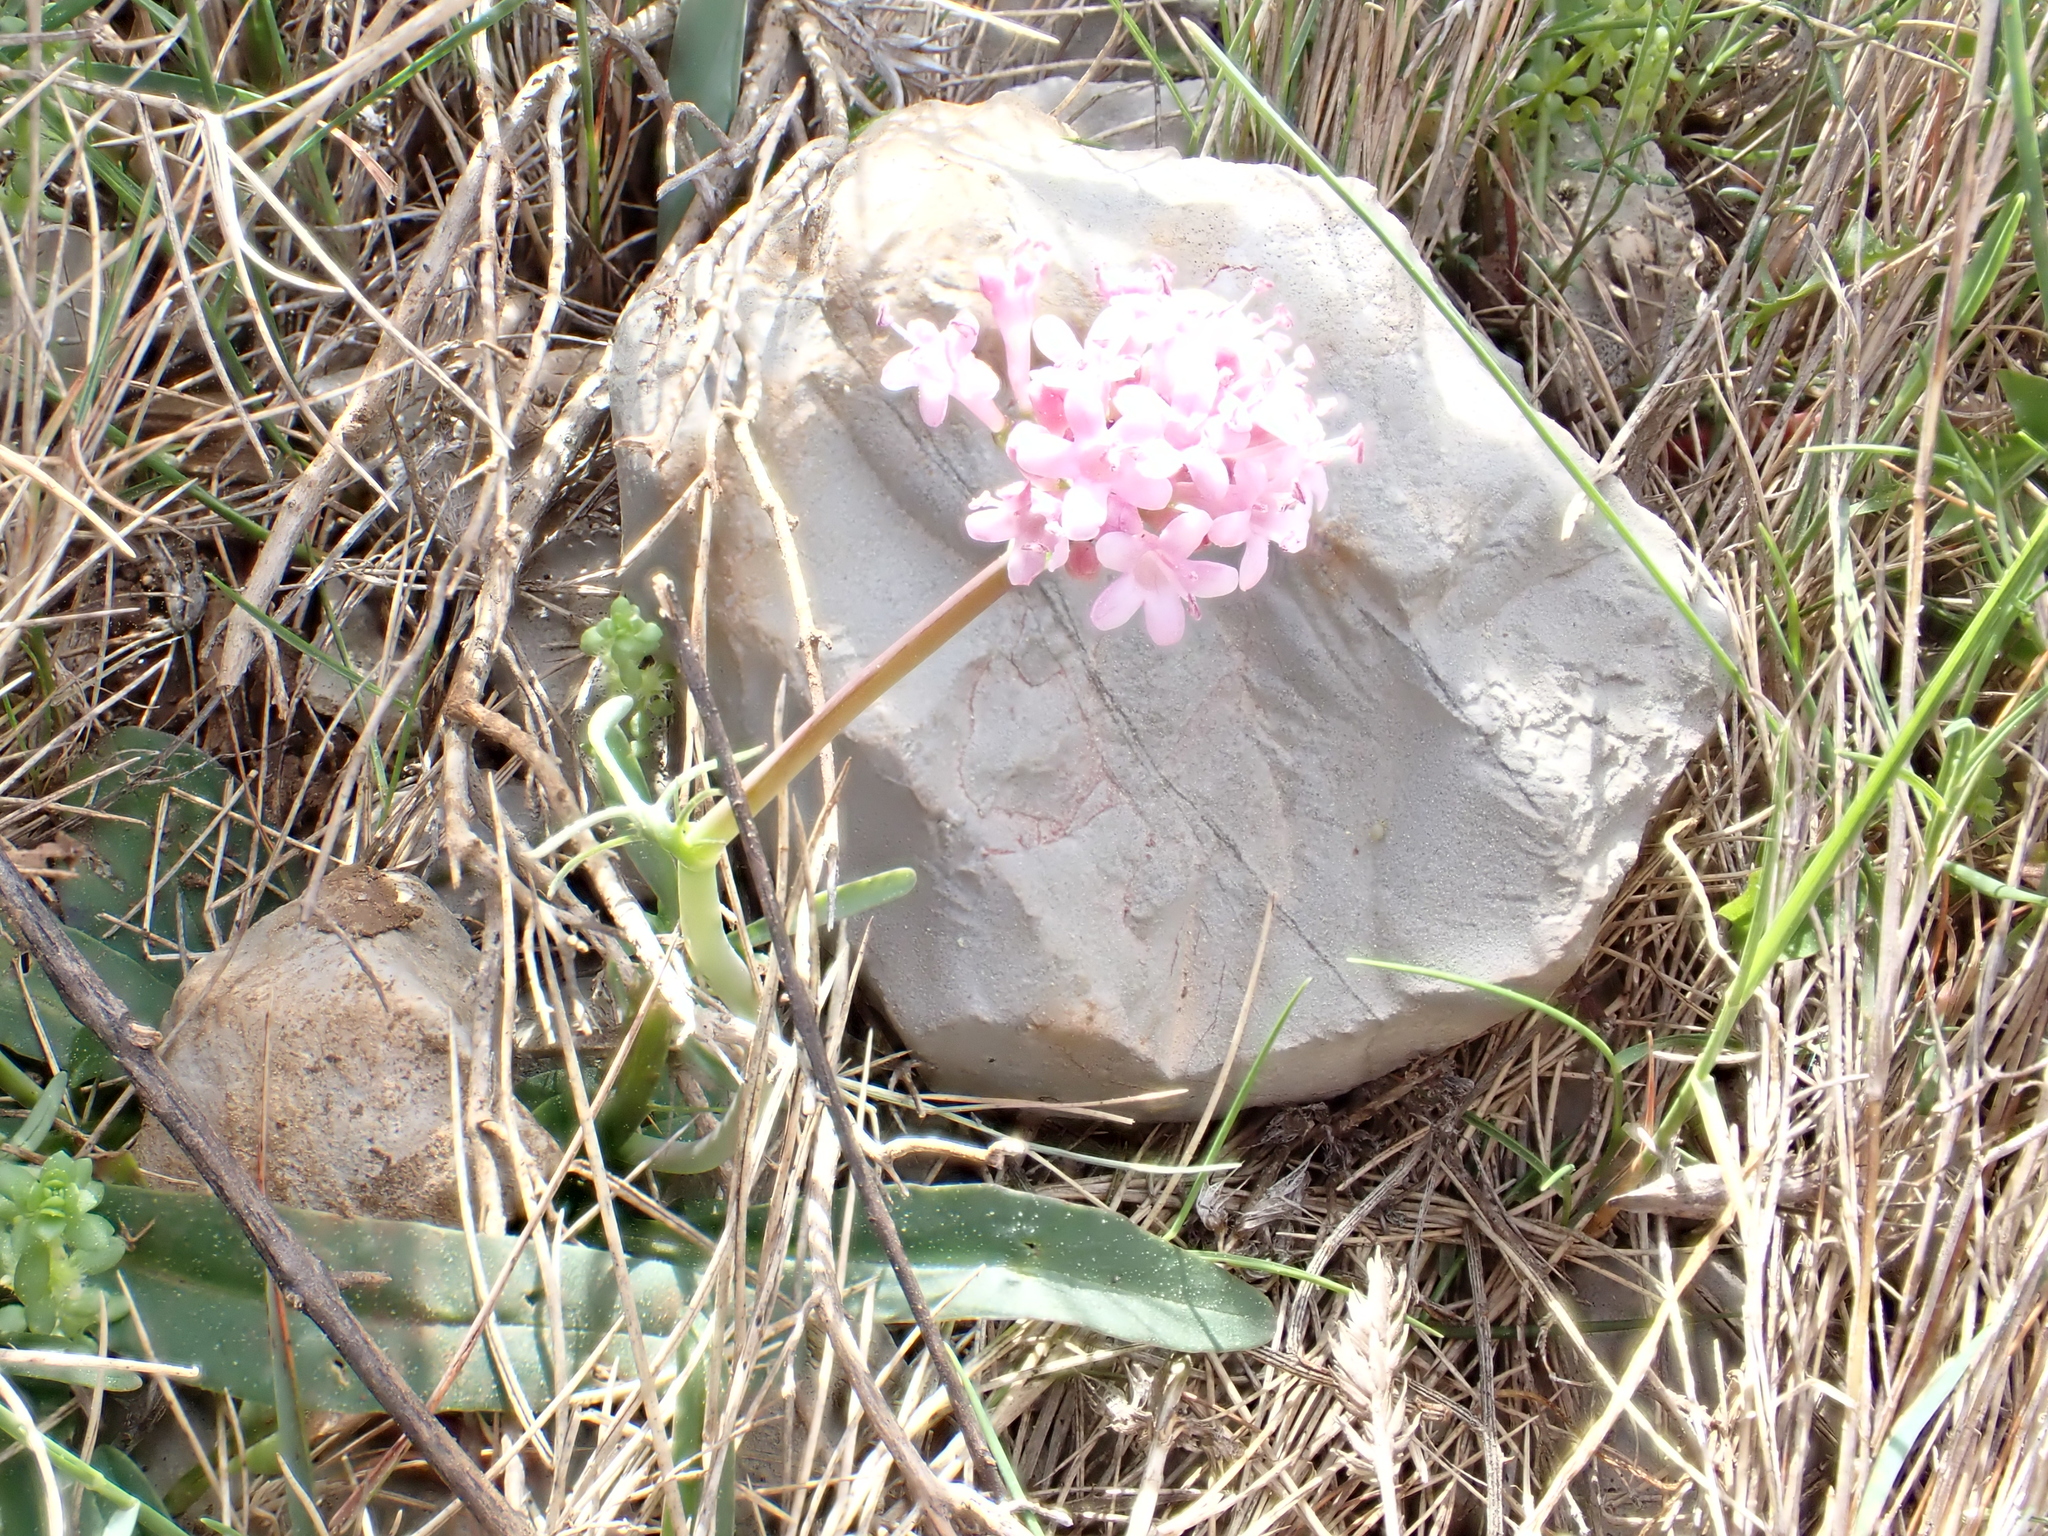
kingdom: Plantae
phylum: Tracheophyta
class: Magnoliopsida
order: Dipsacales
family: Caprifoliaceae
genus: Valeriana
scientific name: Valeriana tuberosa
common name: Tuberous valerian
